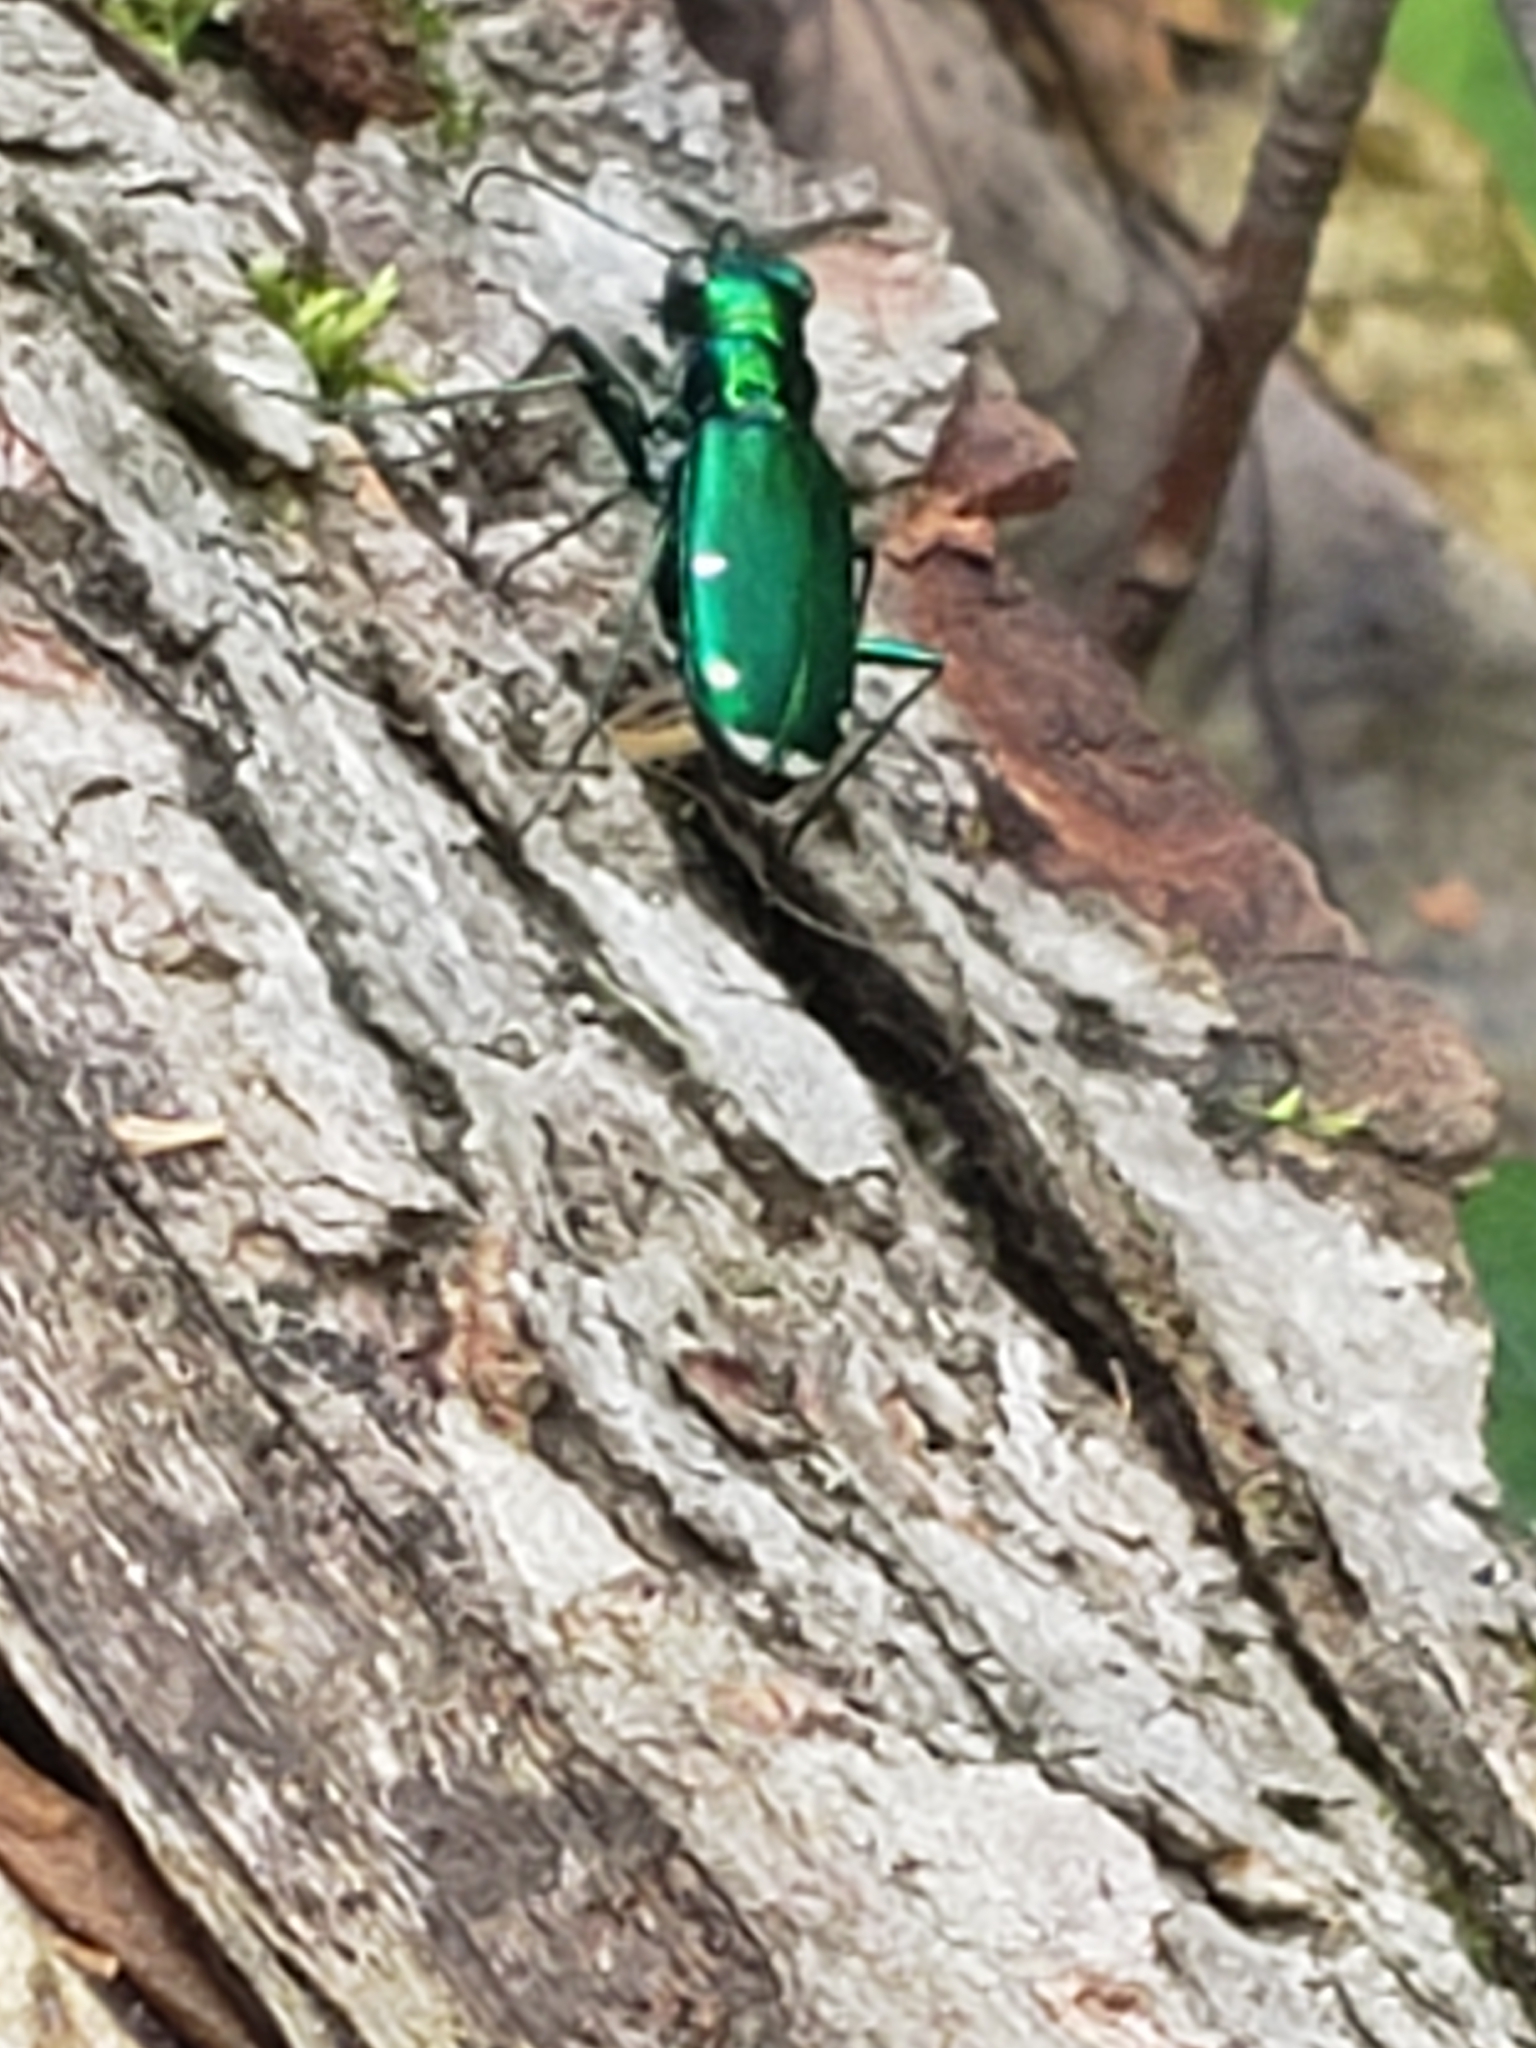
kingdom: Animalia
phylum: Arthropoda
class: Insecta
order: Coleoptera
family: Carabidae
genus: Cicindela
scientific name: Cicindela sexguttata
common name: Six-spotted tiger beetle
